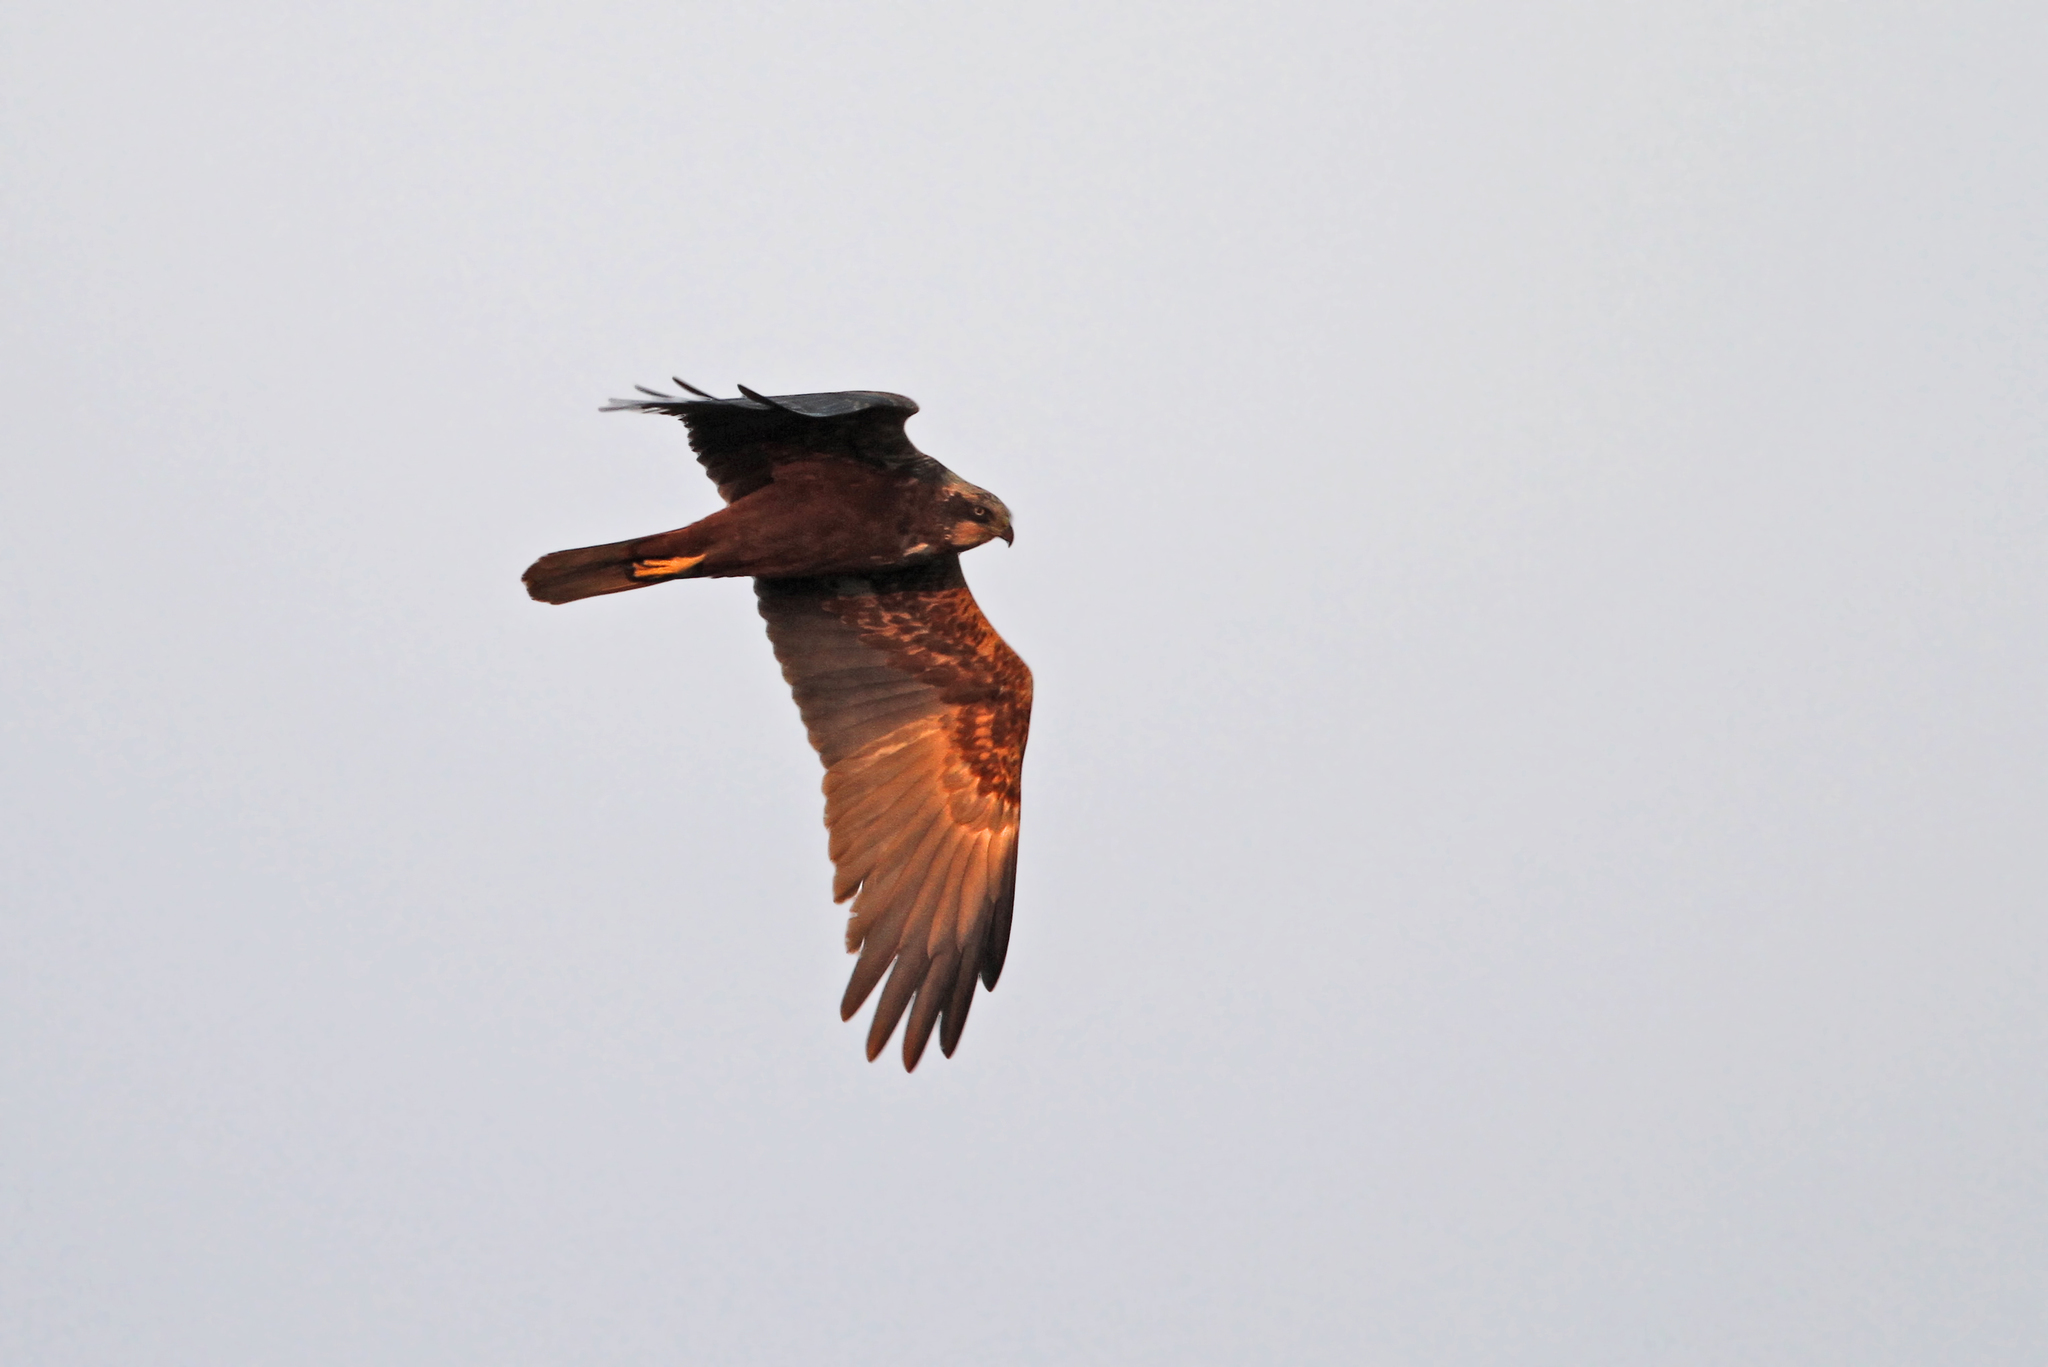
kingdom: Animalia
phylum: Chordata
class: Aves
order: Accipitriformes
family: Accipitridae
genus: Circus
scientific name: Circus aeruginosus
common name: Western marsh harrier
